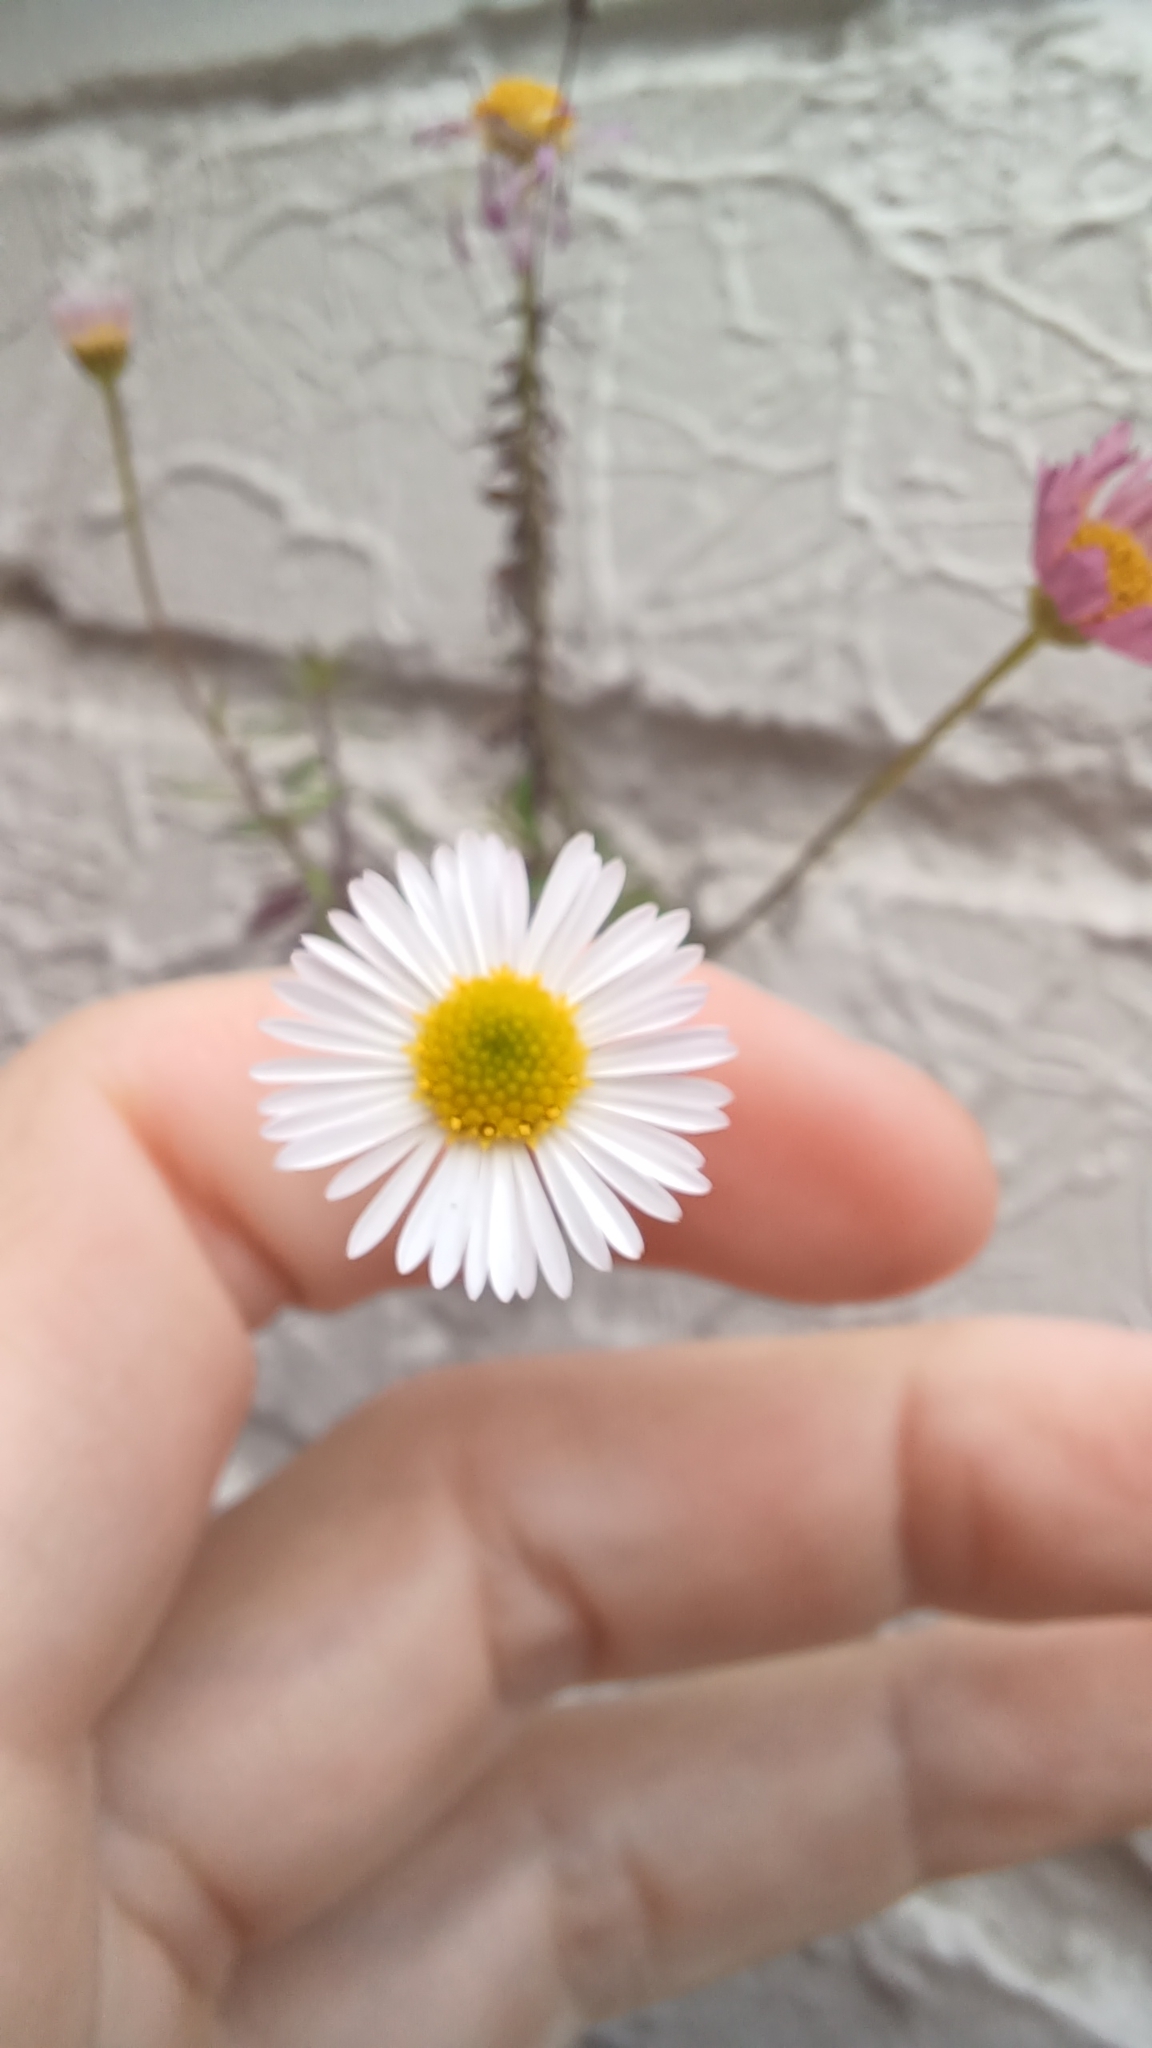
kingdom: Plantae
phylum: Tracheophyta
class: Magnoliopsida
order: Asterales
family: Asteraceae
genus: Erigeron
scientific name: Erigeron karvinskianus
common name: Mexican fleabane
